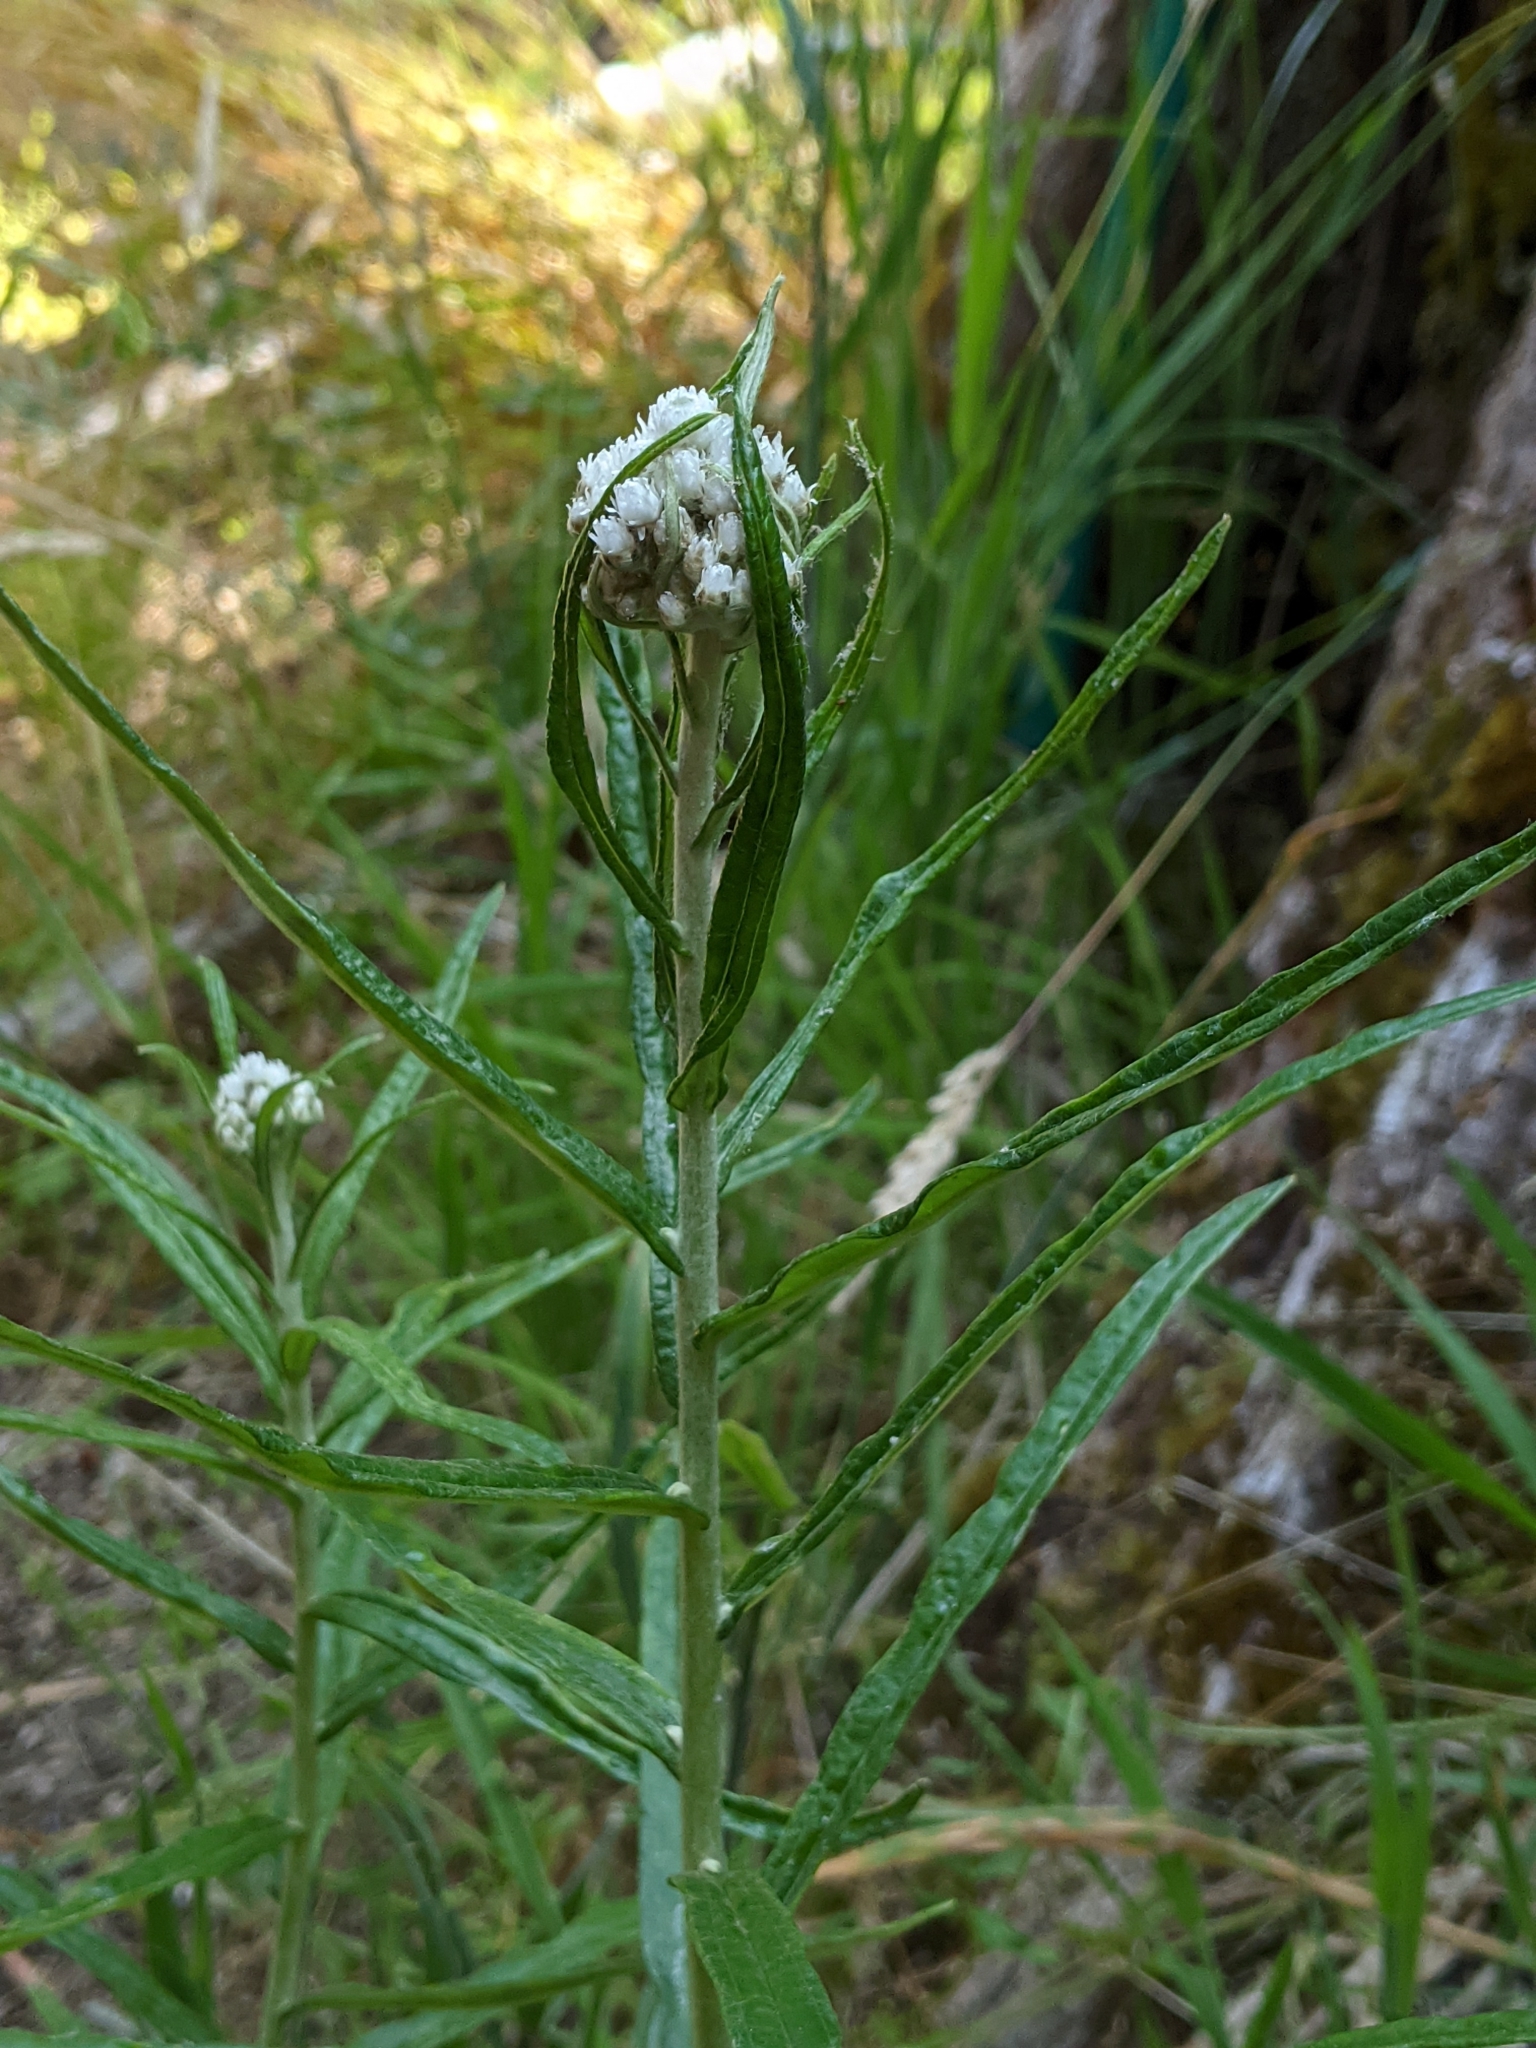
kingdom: Plantae
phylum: Tracheophyta
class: Magnoliopsida
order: Asterales
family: Asteraceae
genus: Anaphalis
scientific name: Anaphalis margaritacea
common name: Pearly everlasting
